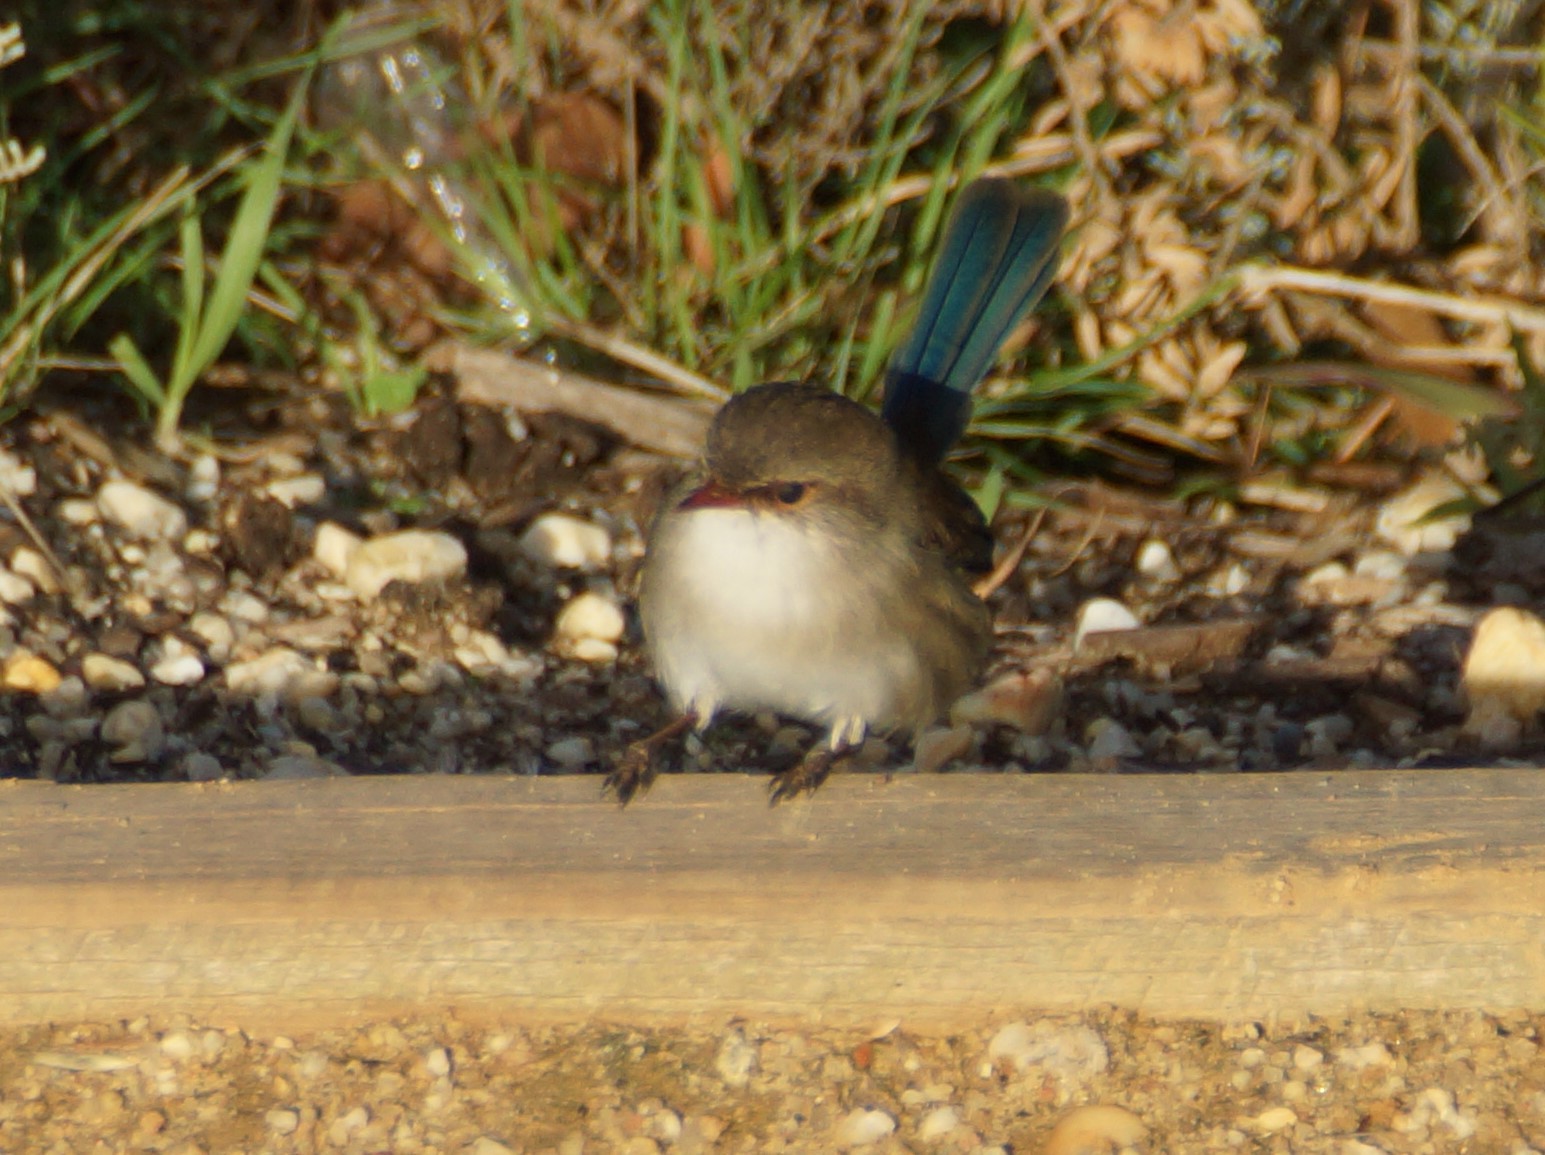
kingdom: Animalia
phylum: Chordata
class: Aves
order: Passeriformes
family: Maluridae
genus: Malurus
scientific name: Malurus cyaneus
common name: Superb fairywren
